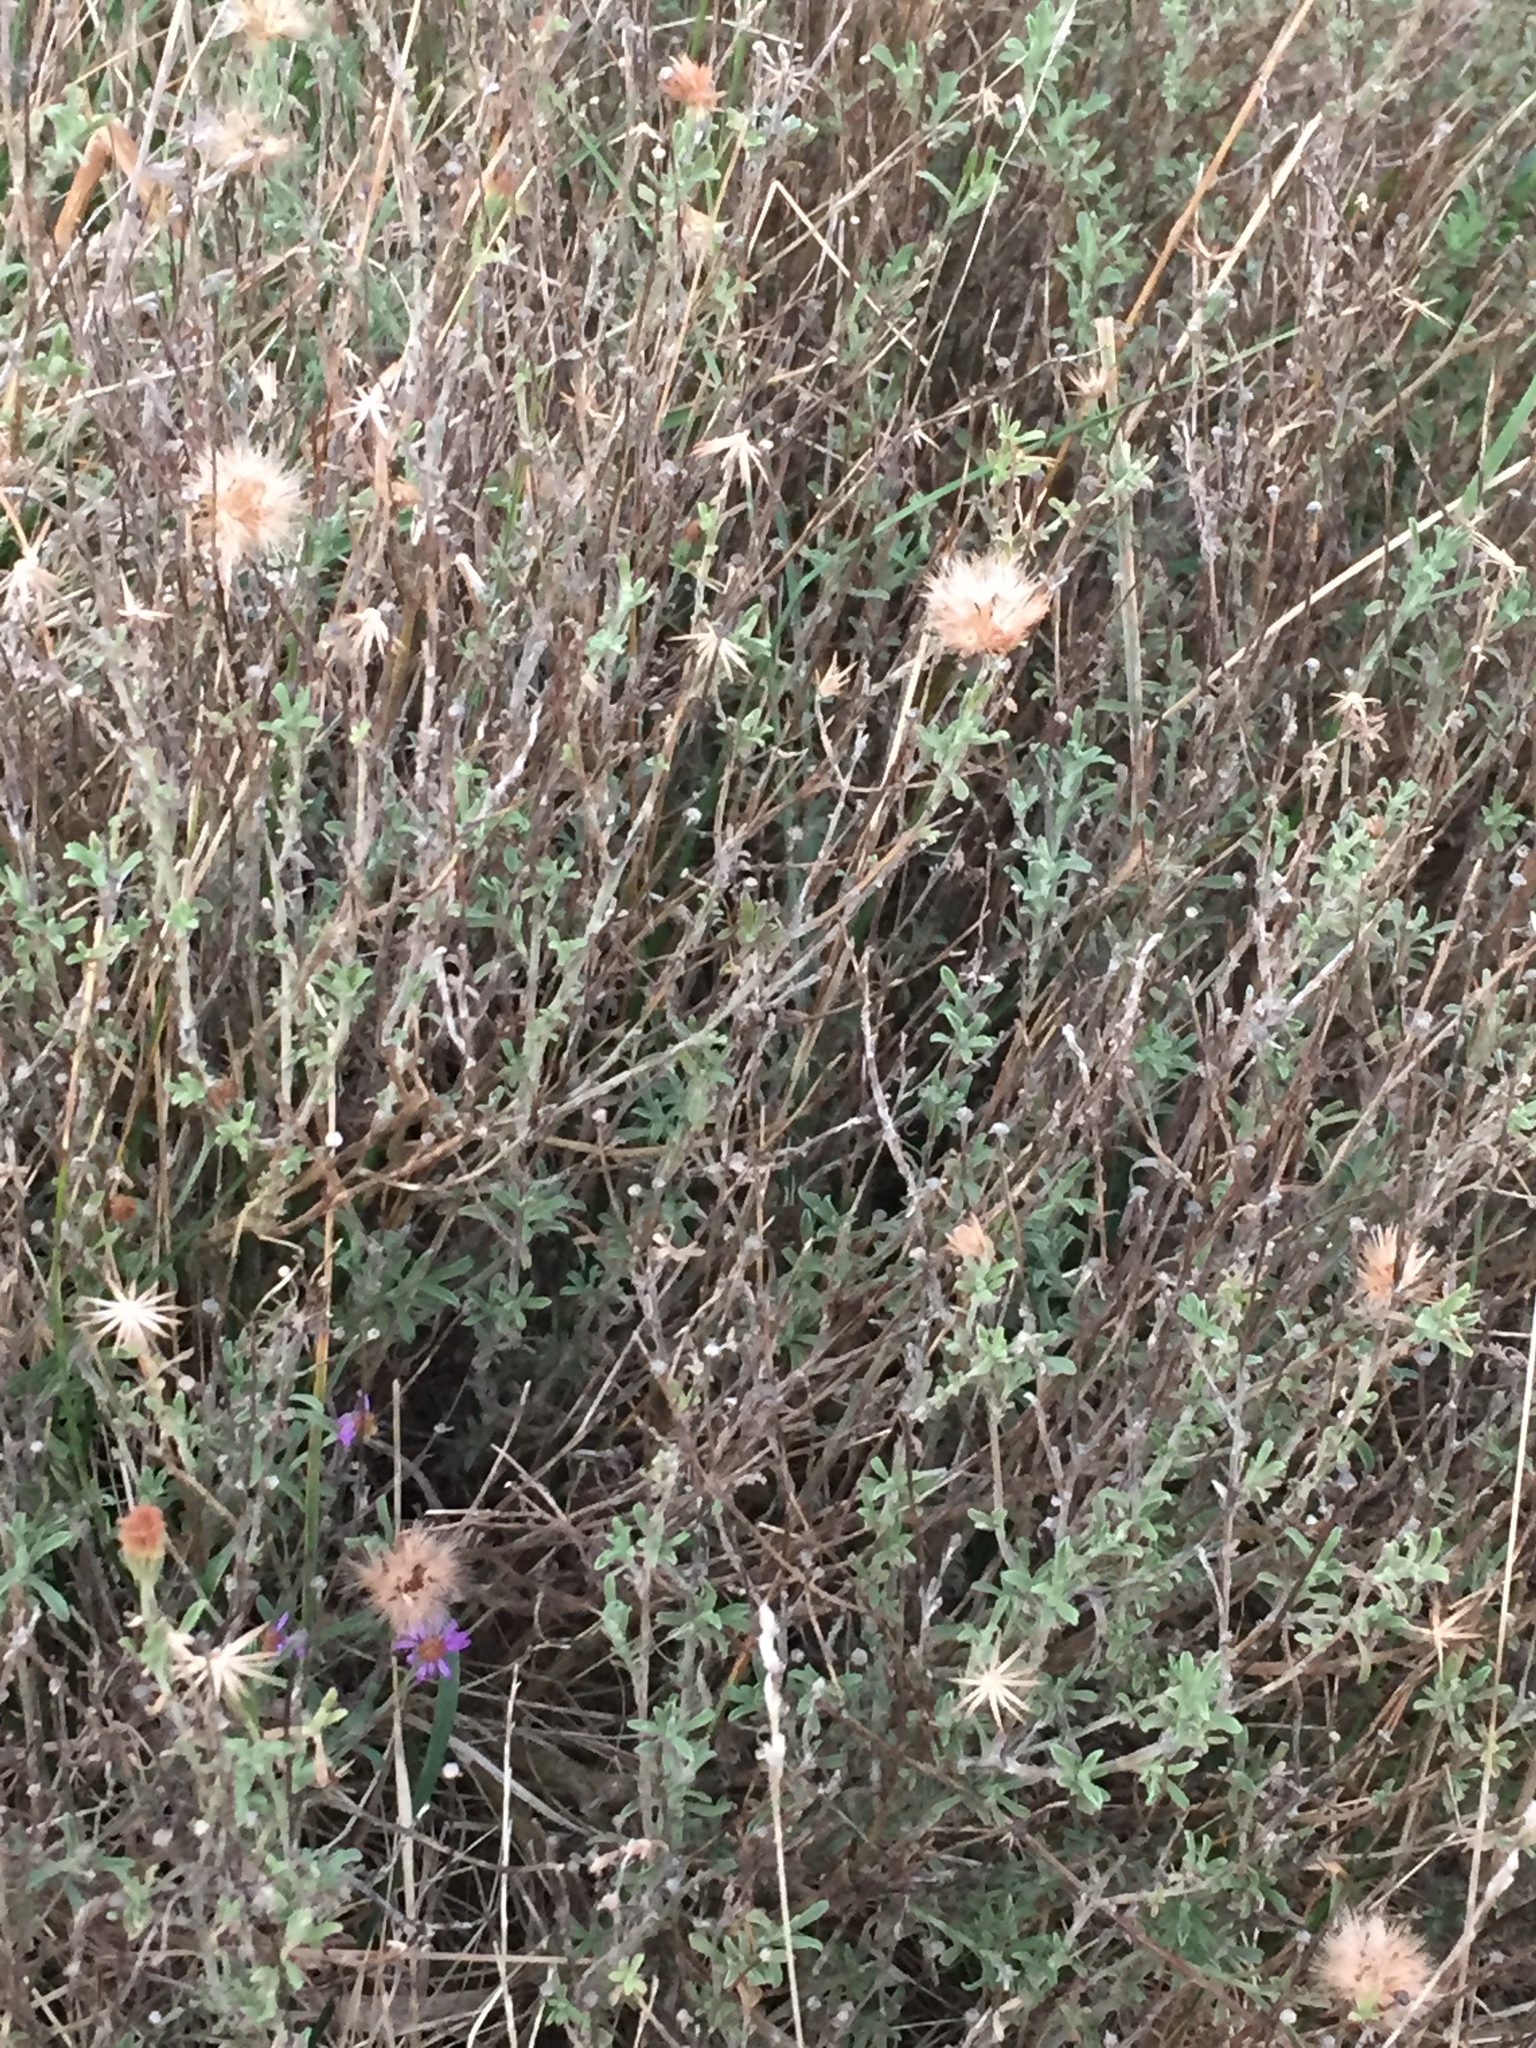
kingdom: Plantae
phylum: Tracheophyta
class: Magnoliopsida
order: Asterales
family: Asteraceae
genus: Vittadinia
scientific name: Vittadinia gracilis
